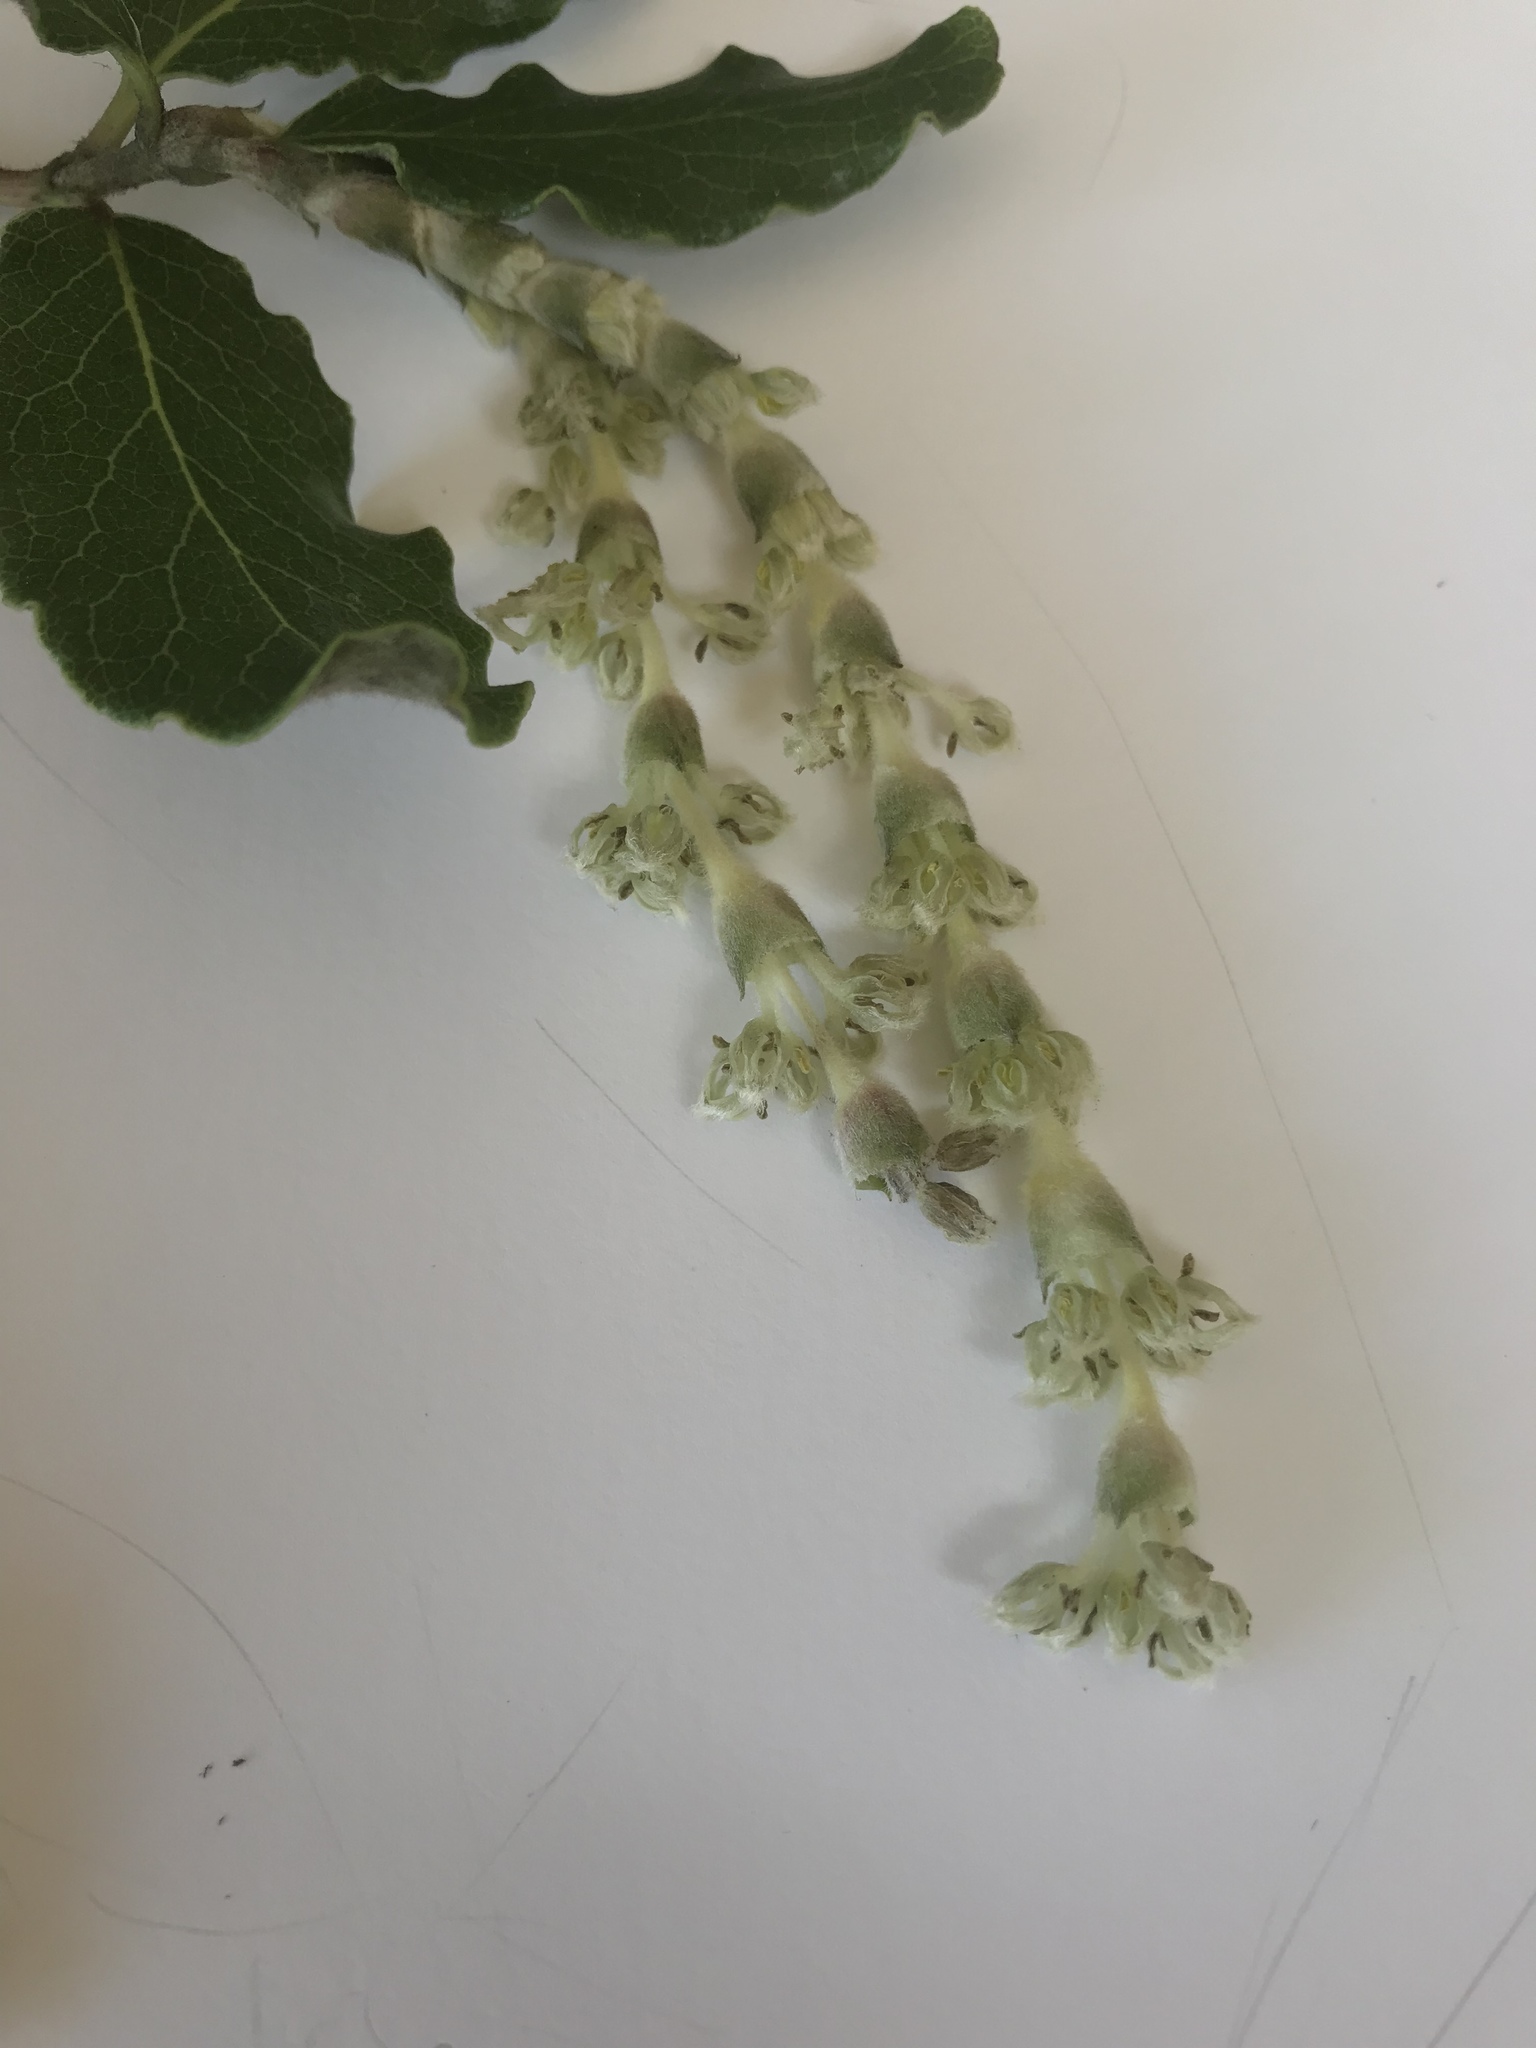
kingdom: Plantae
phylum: Tracheophyta
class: Magnoliopsida
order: Garryales
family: Garryaceae
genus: Garrya
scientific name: Garrya elliptica
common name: Silk-tassel
